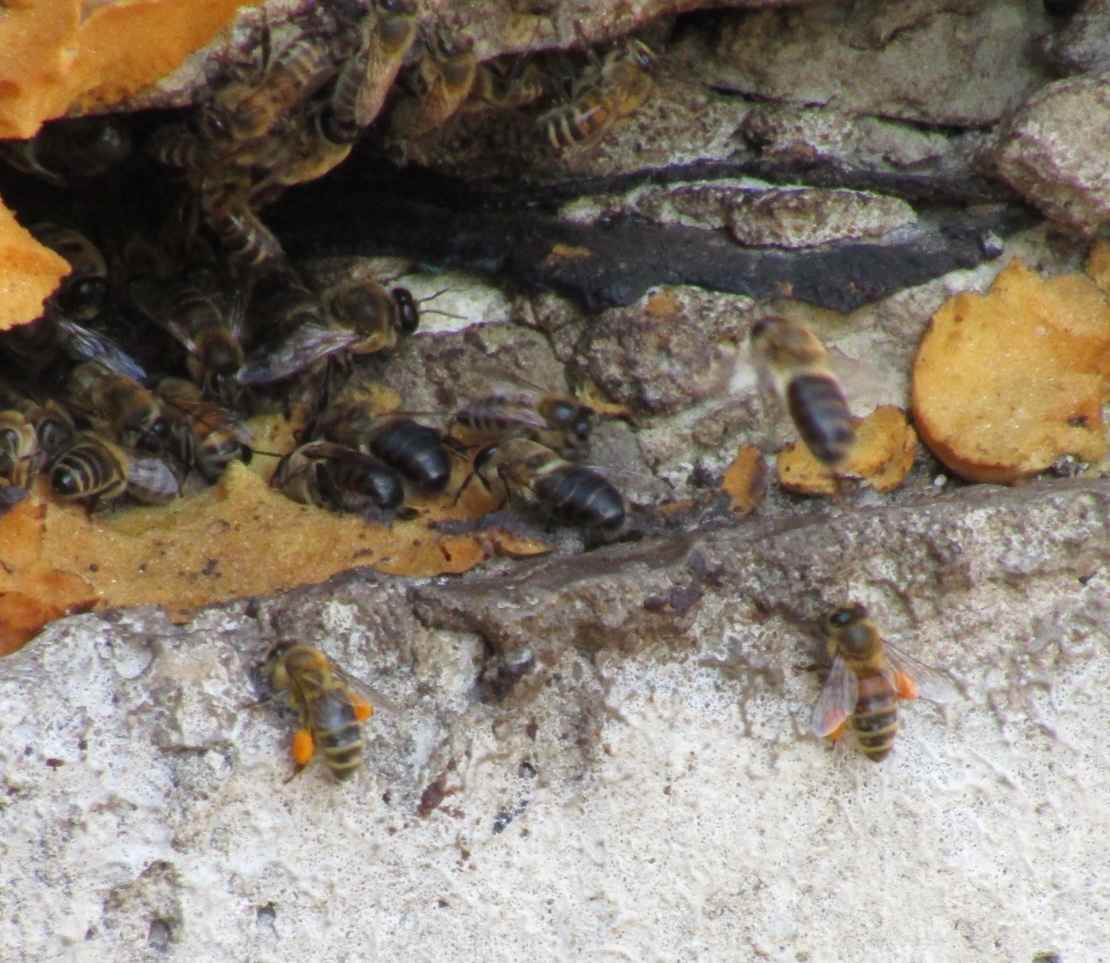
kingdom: Animalia
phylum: Arthropoda
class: Insecta
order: Hymenoptera
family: Apidae
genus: Apis
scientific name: Apis mellifera
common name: Honey bee
